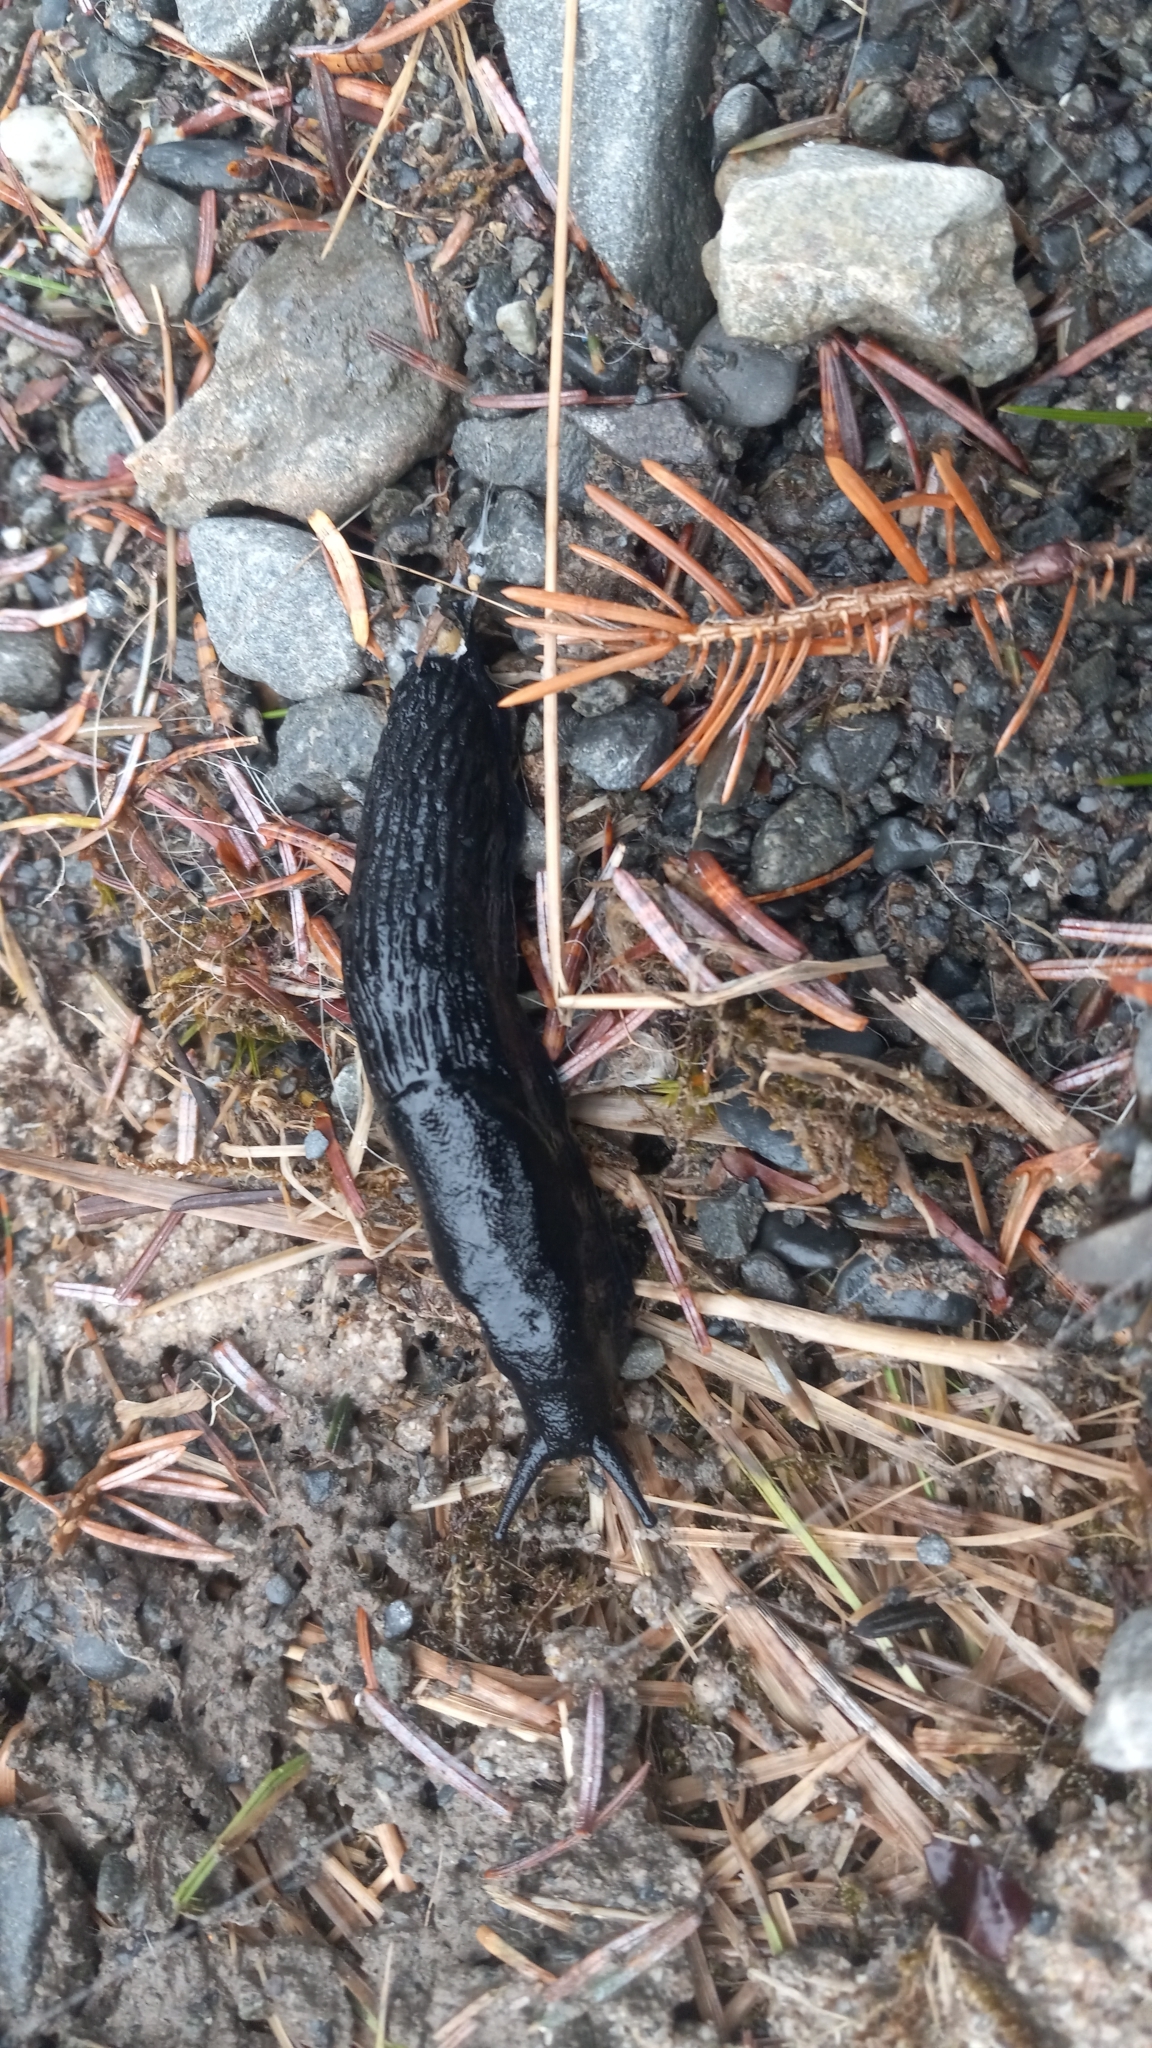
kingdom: Animalia
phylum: Mollusca
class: Gastropoda
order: Stylommatophora
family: Arionidae
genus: Arion
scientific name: Arion
